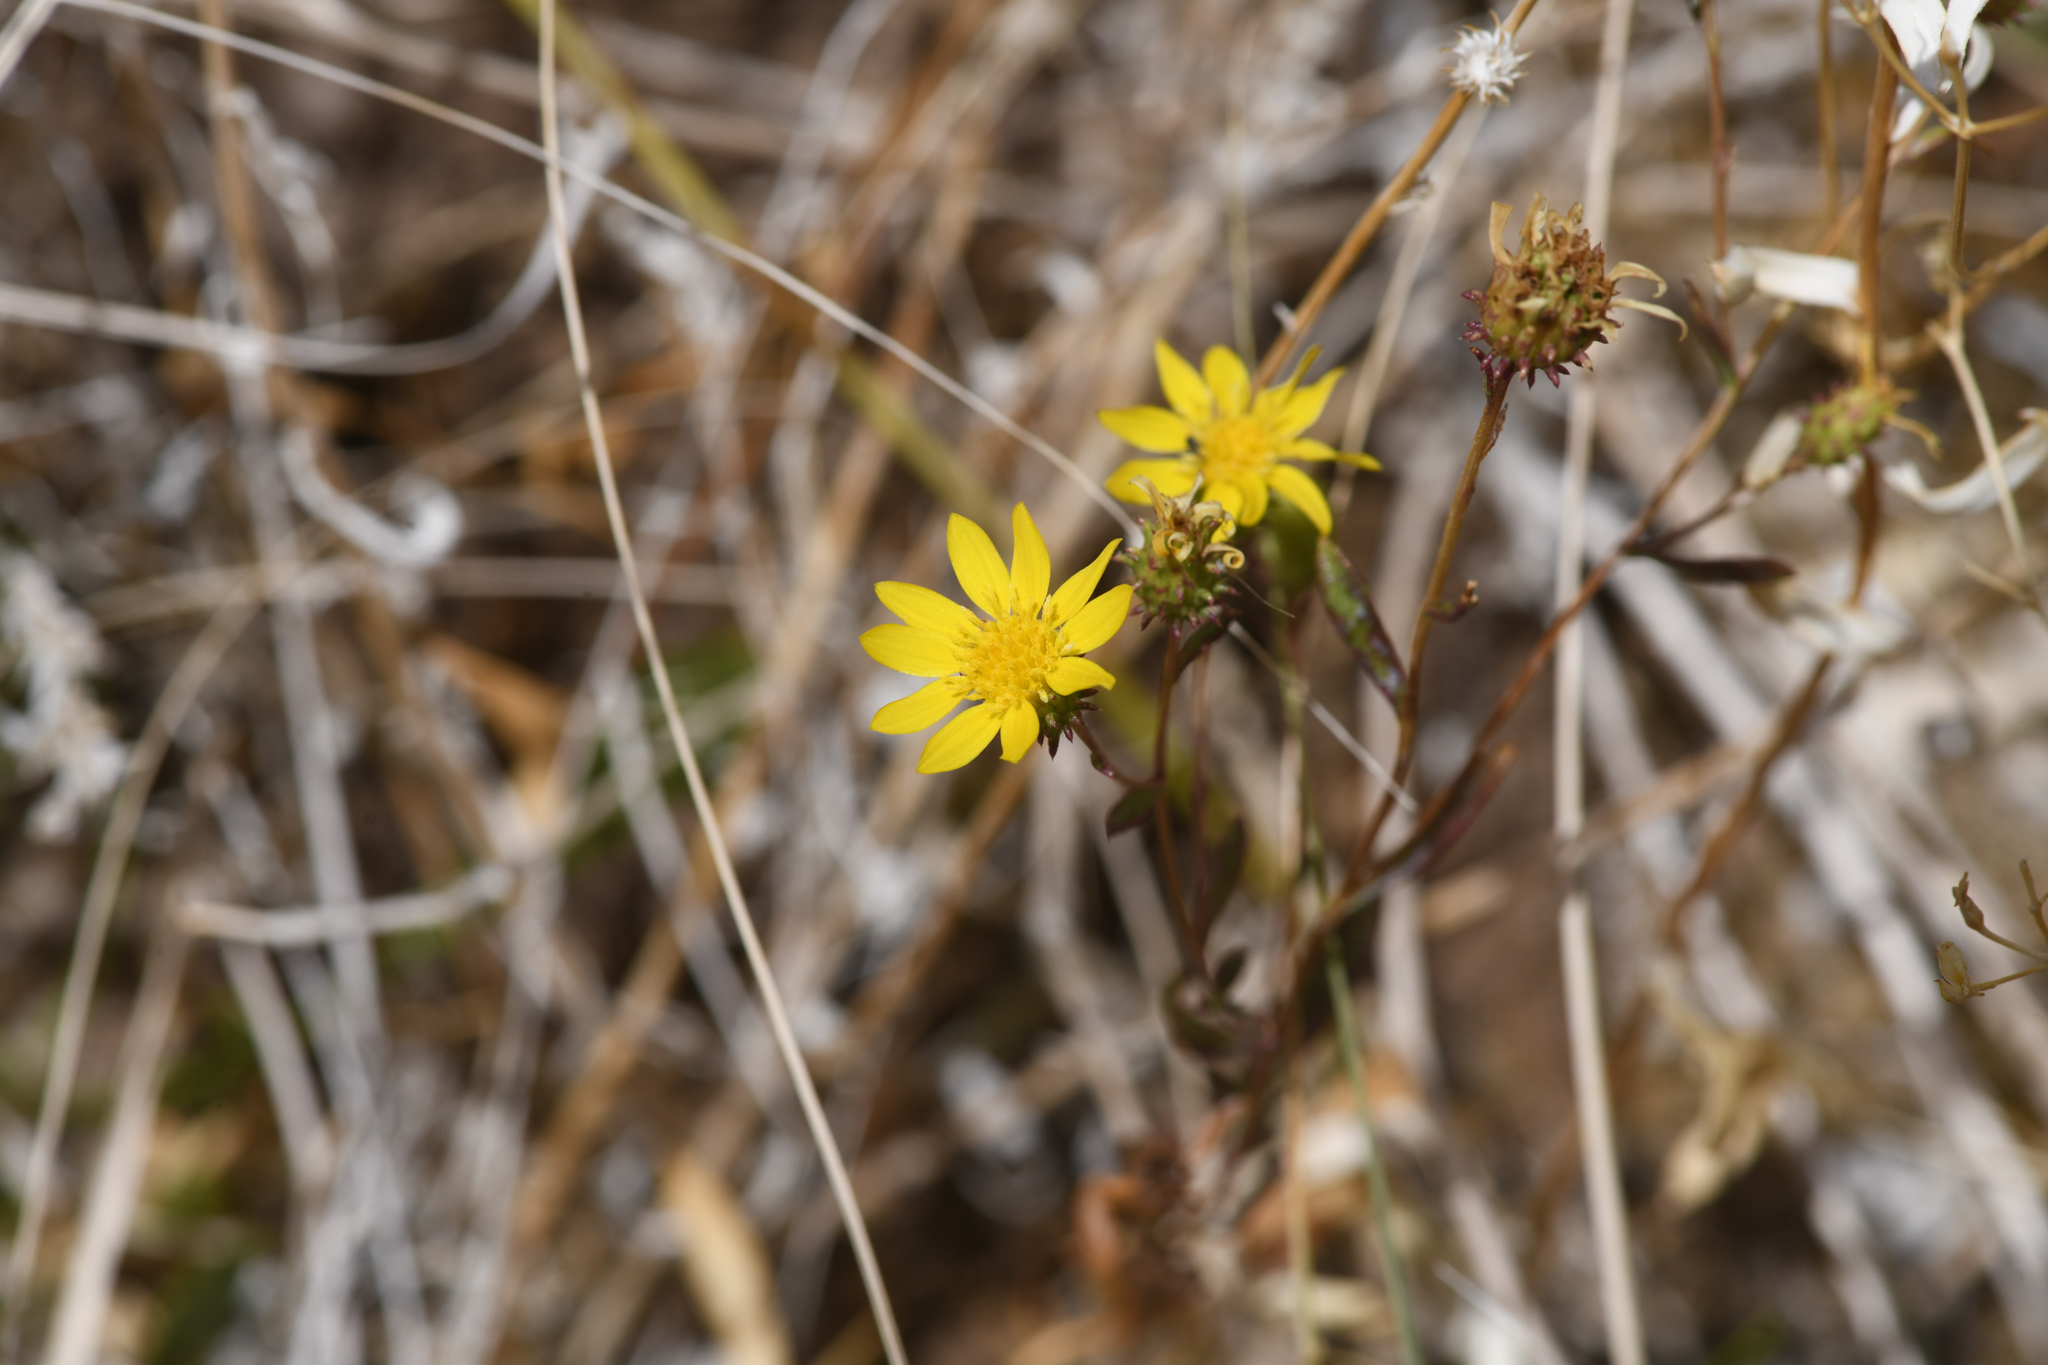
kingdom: Plantae
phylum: Tracheophyta
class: Magnoliopsida
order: Asterales
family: Asteraceae
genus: Grindelia
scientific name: Grindelia fraxinipratensis
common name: Ash meadows gumplant
